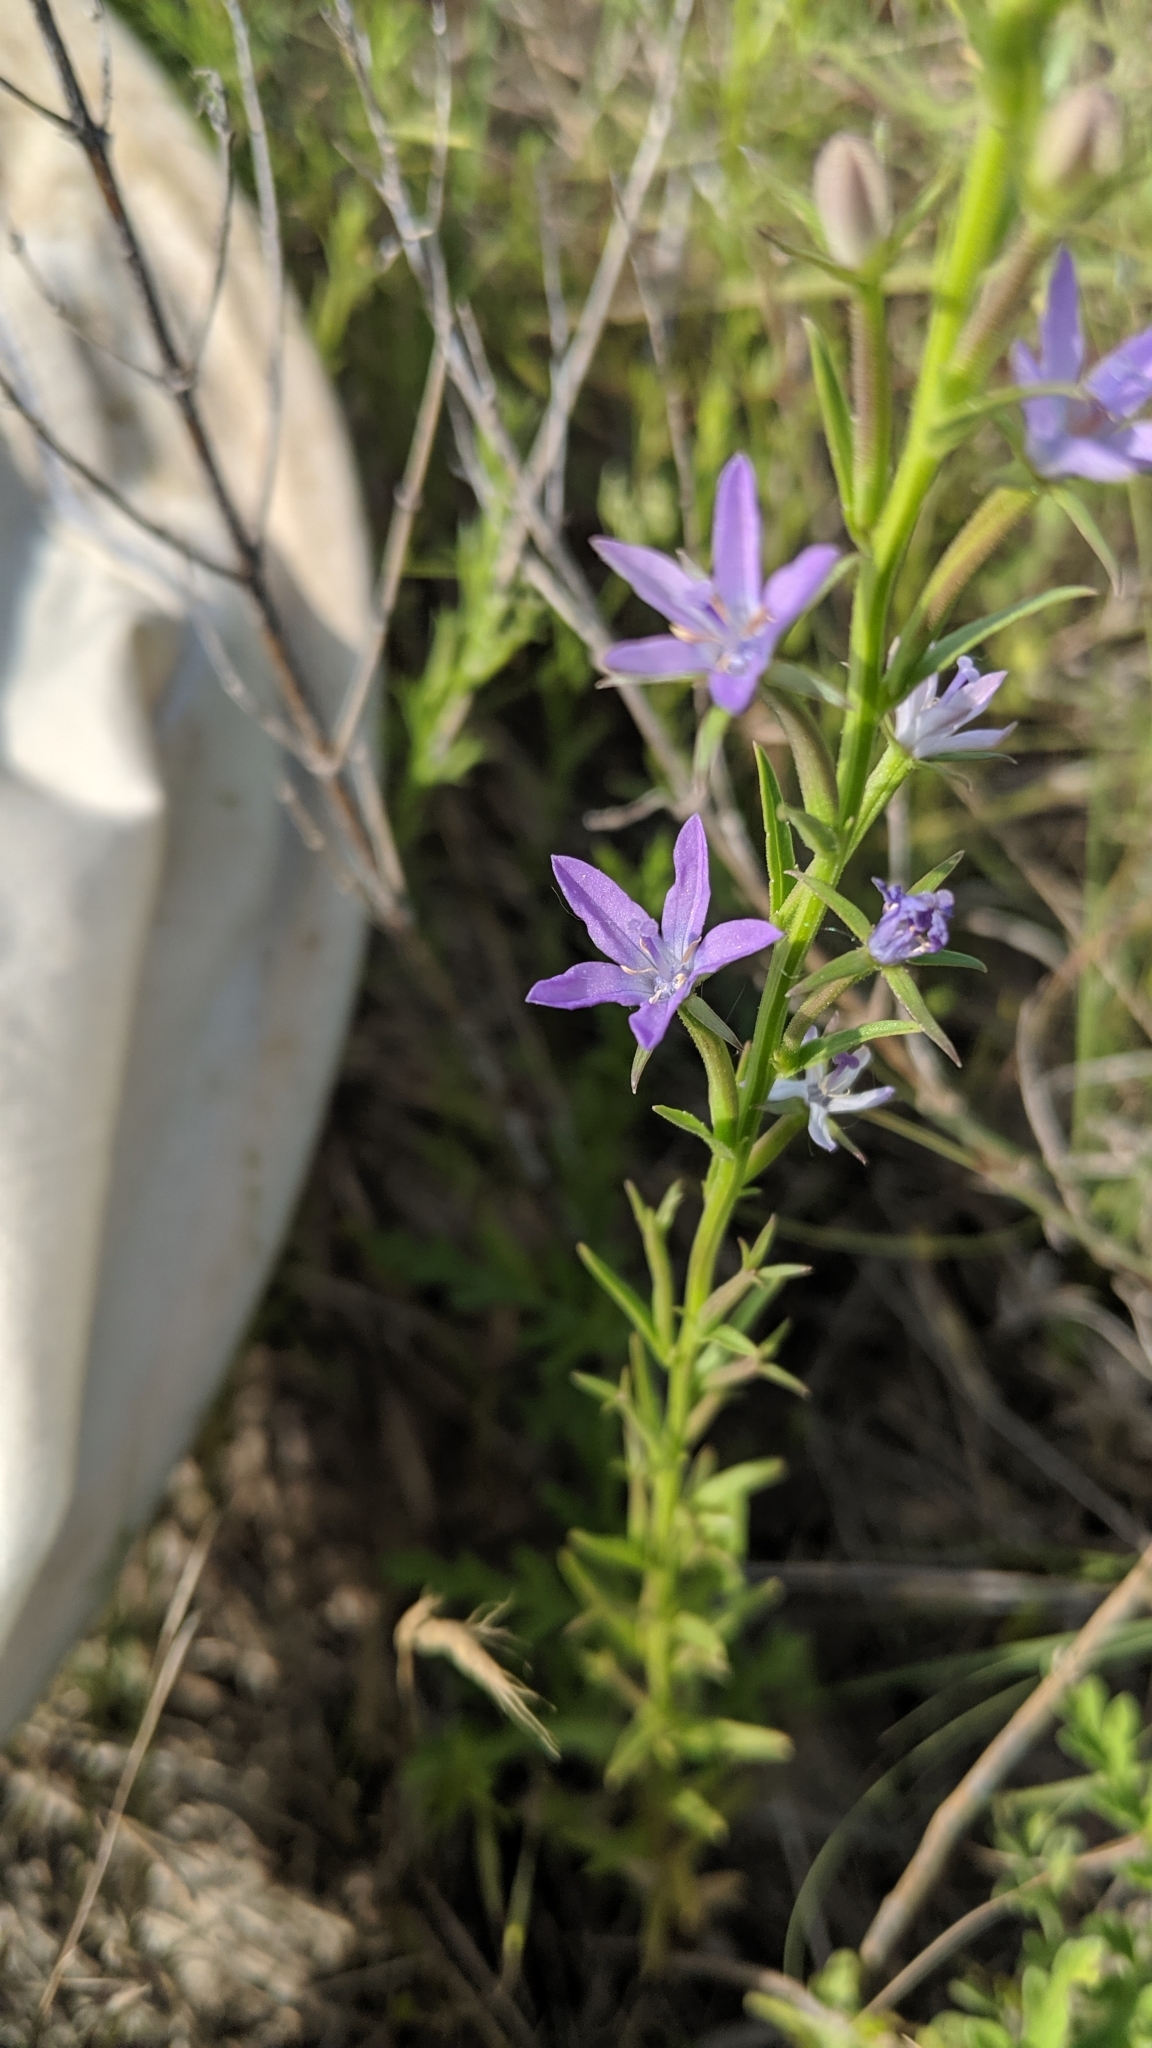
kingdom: Plantae
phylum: Tracheophyta
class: Magnoliopsida
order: Asterales
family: Campanulaceae
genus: Triodanis
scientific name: Triodanis leptocarpa
